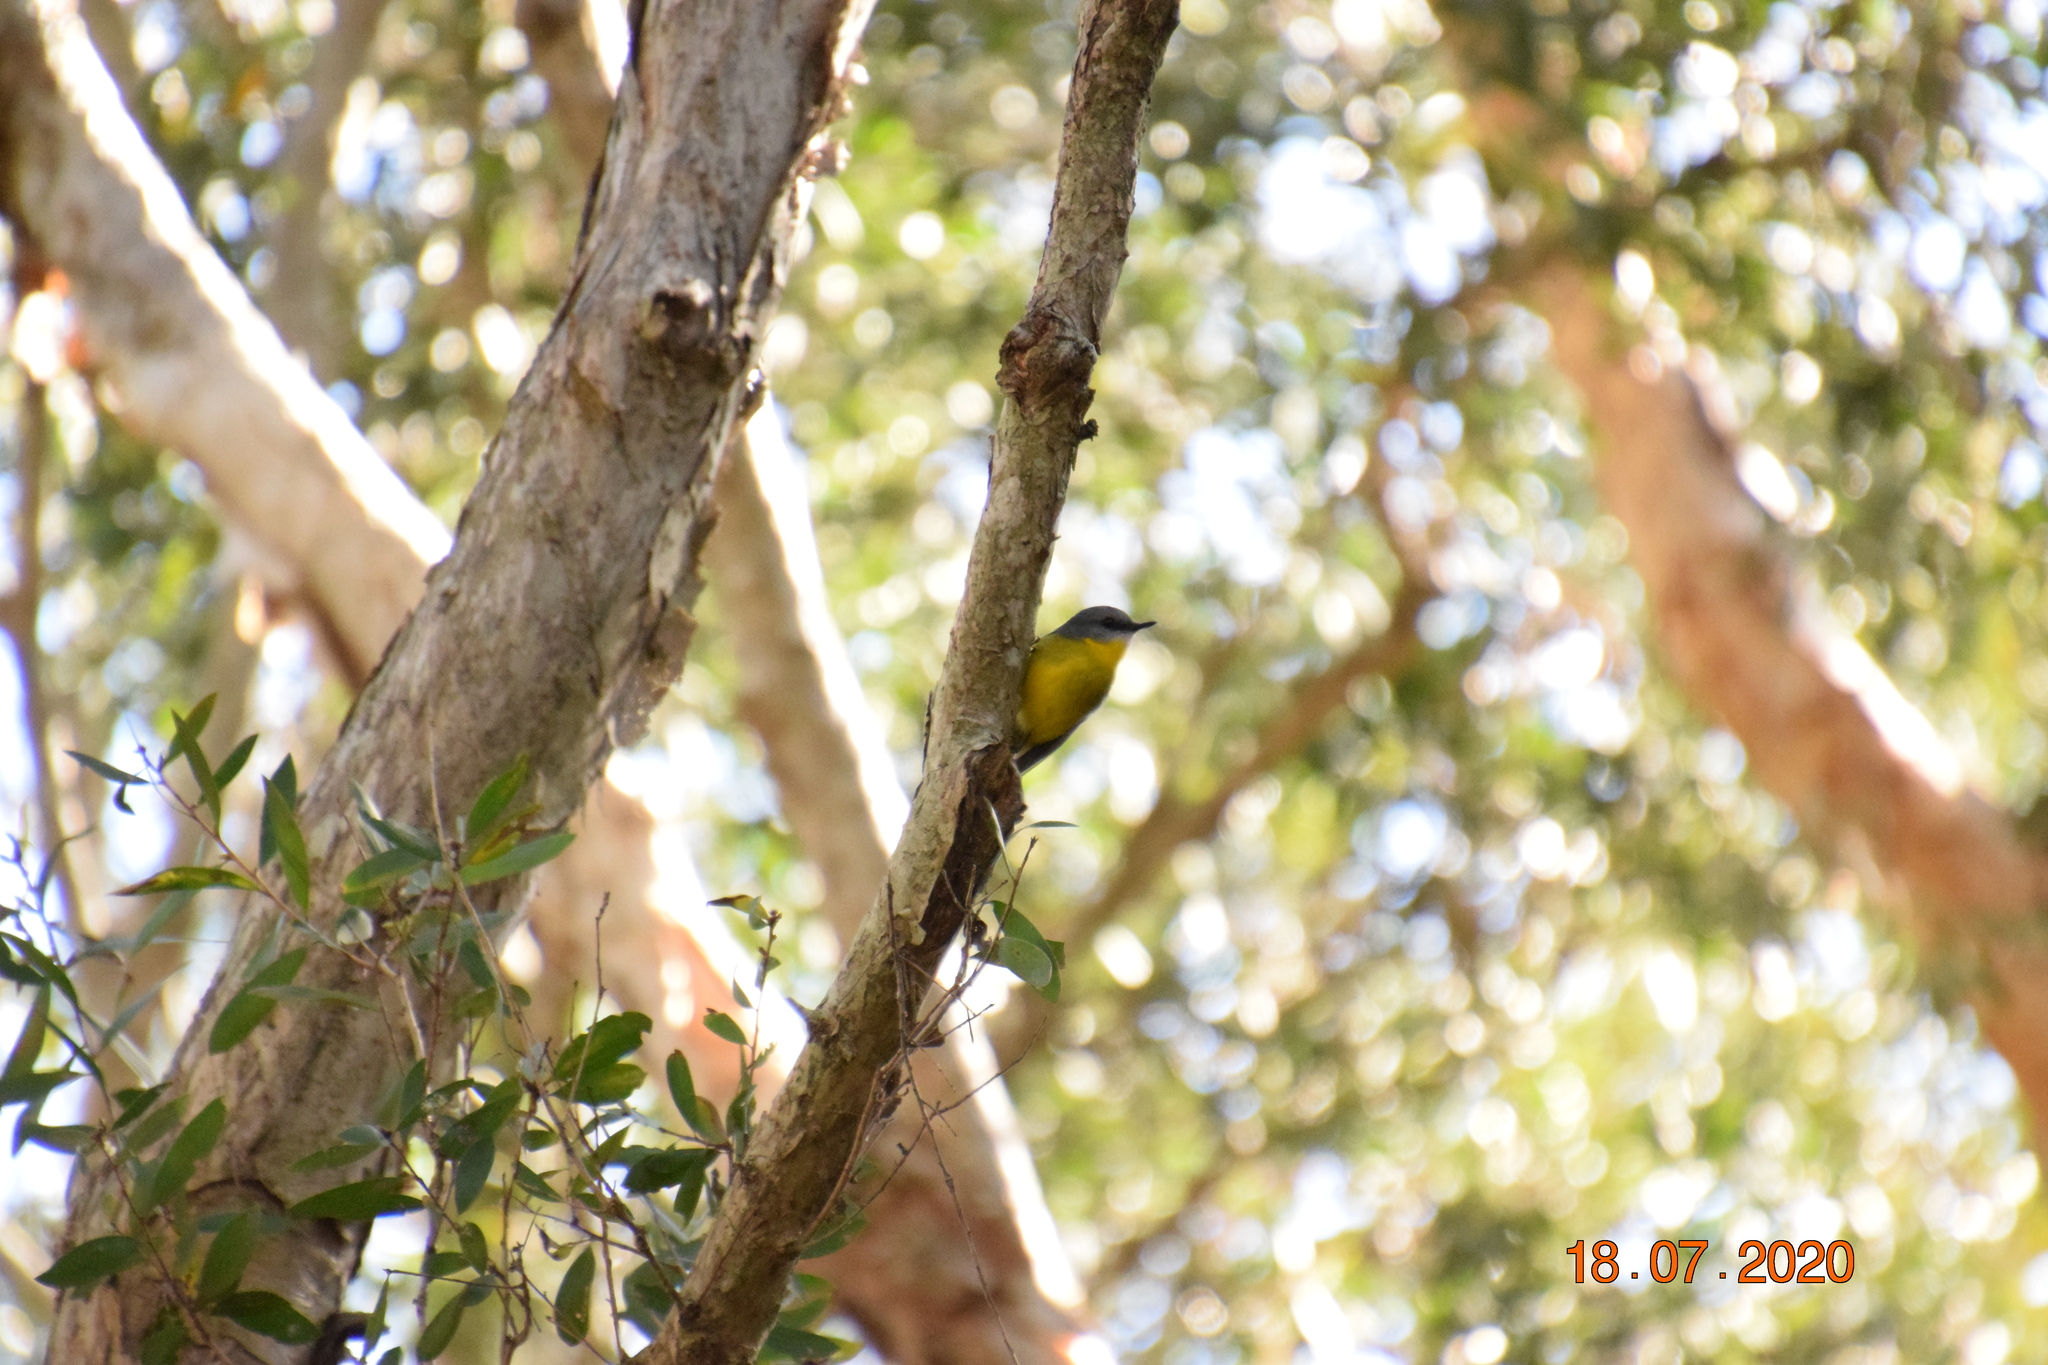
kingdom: Animalia
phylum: Chordata
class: Aves
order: Passeriformes
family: Petroicidae
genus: Eopsaltria
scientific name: Eopsaltria australis
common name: Eastern yellow robin
